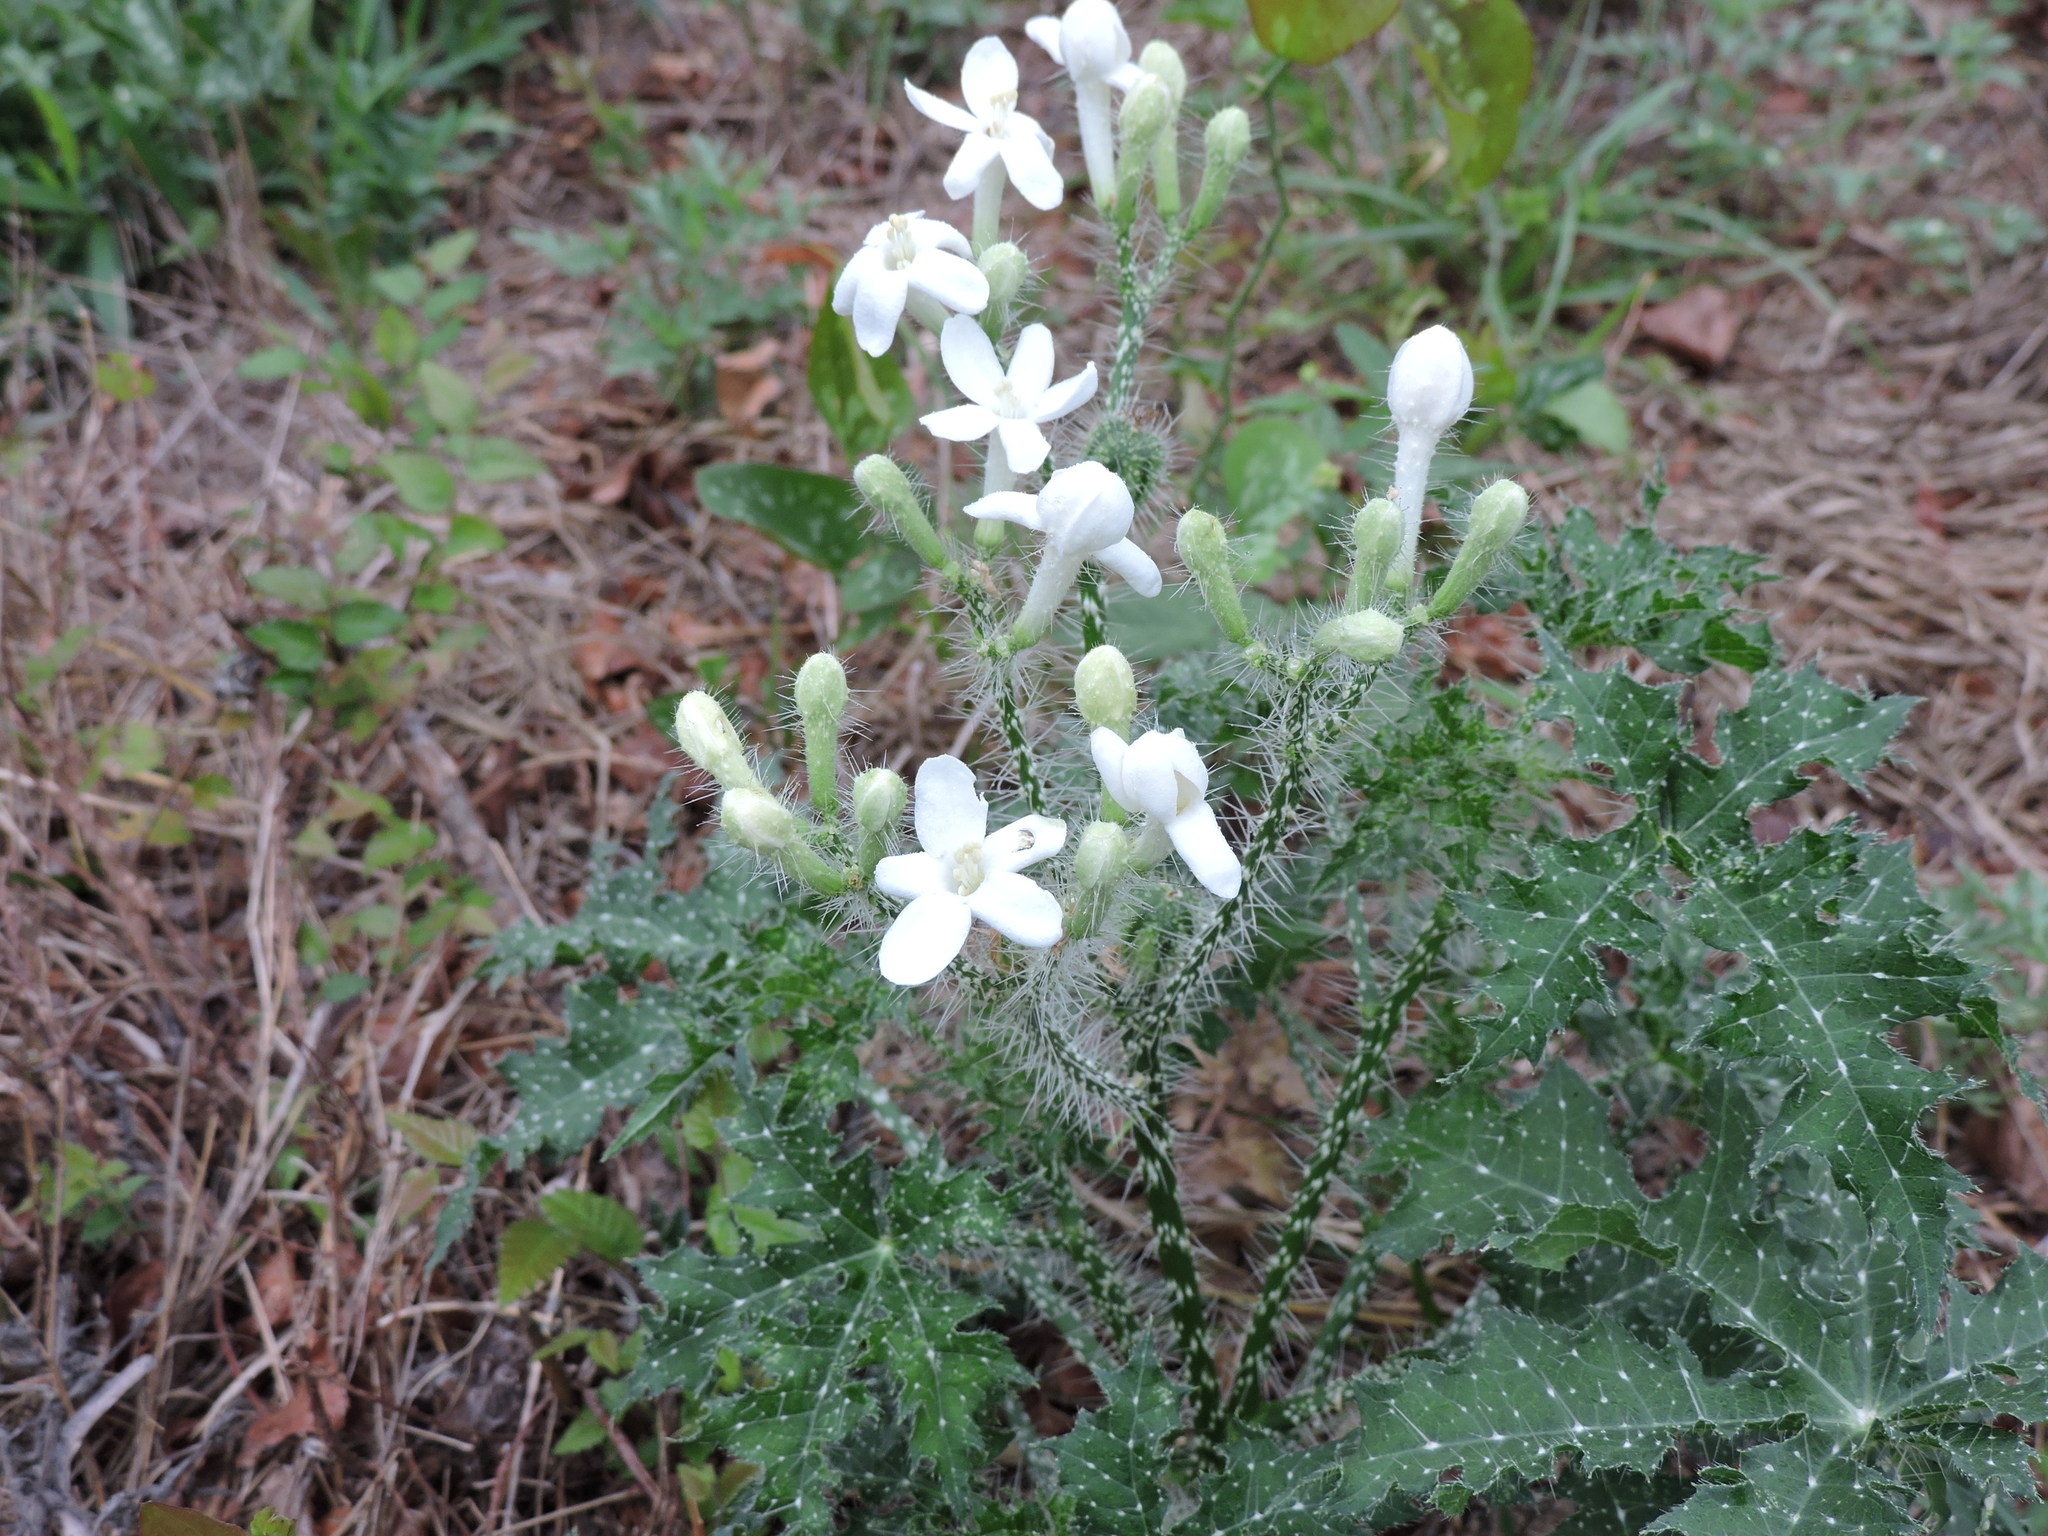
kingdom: Plantae
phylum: Tracheophyta
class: Magnoliopsida
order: Malpighiales
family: Euphorbiaceae
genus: Cnidoscolus
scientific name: Cnidoscolus texanus
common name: Texas bull-nettle
